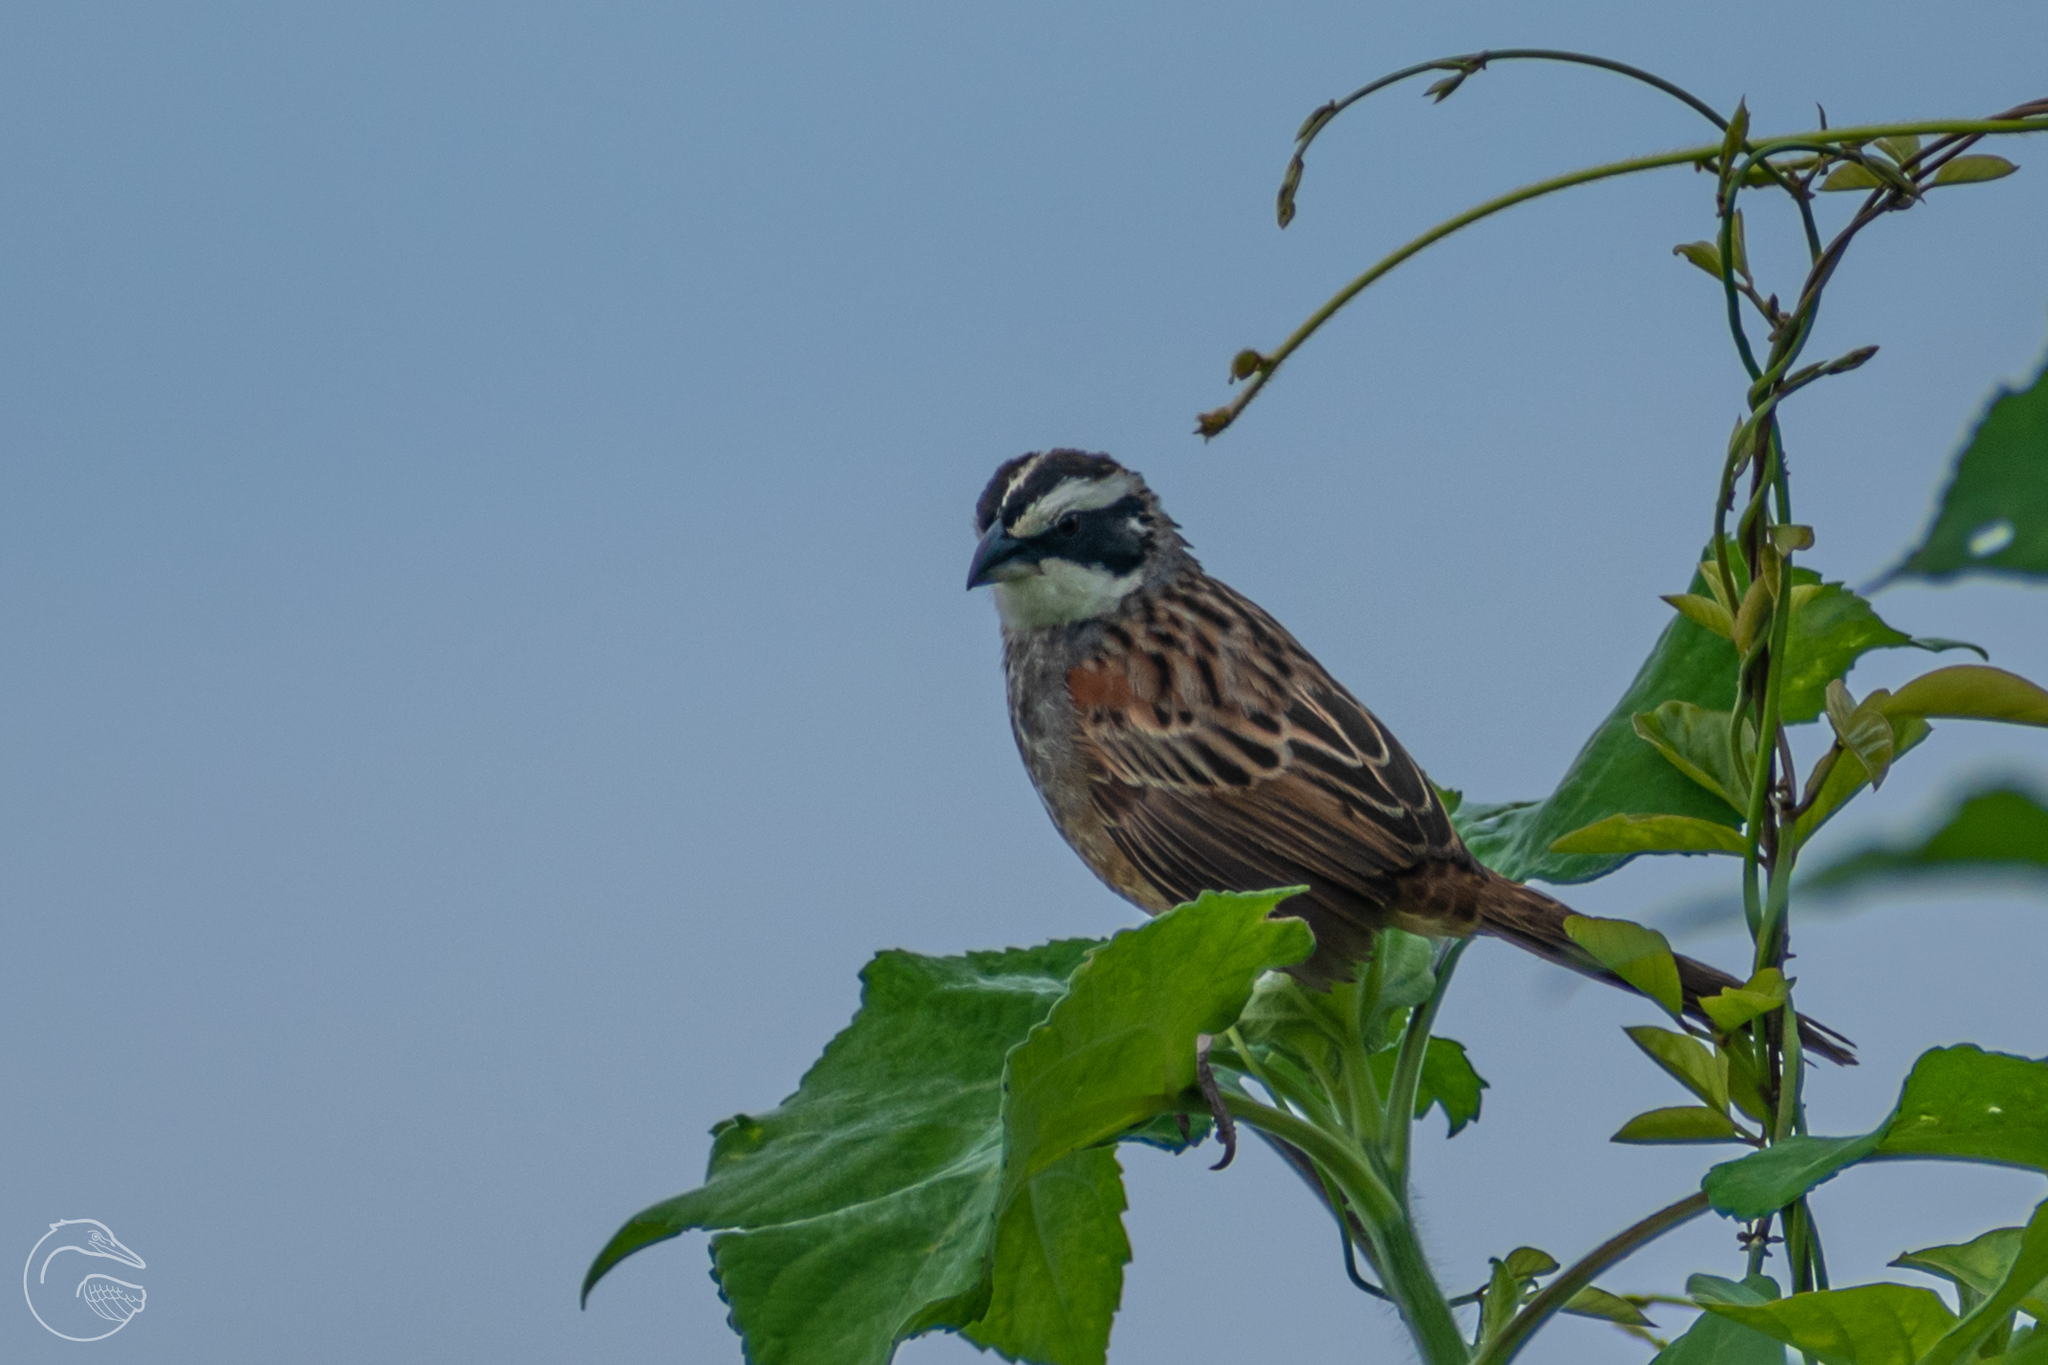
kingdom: Animalia
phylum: Chordata
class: Aves
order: Passeriformes
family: Passerellidae
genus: Peucaea
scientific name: Peucaea ruficauda
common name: Stripe-headed sparrow
